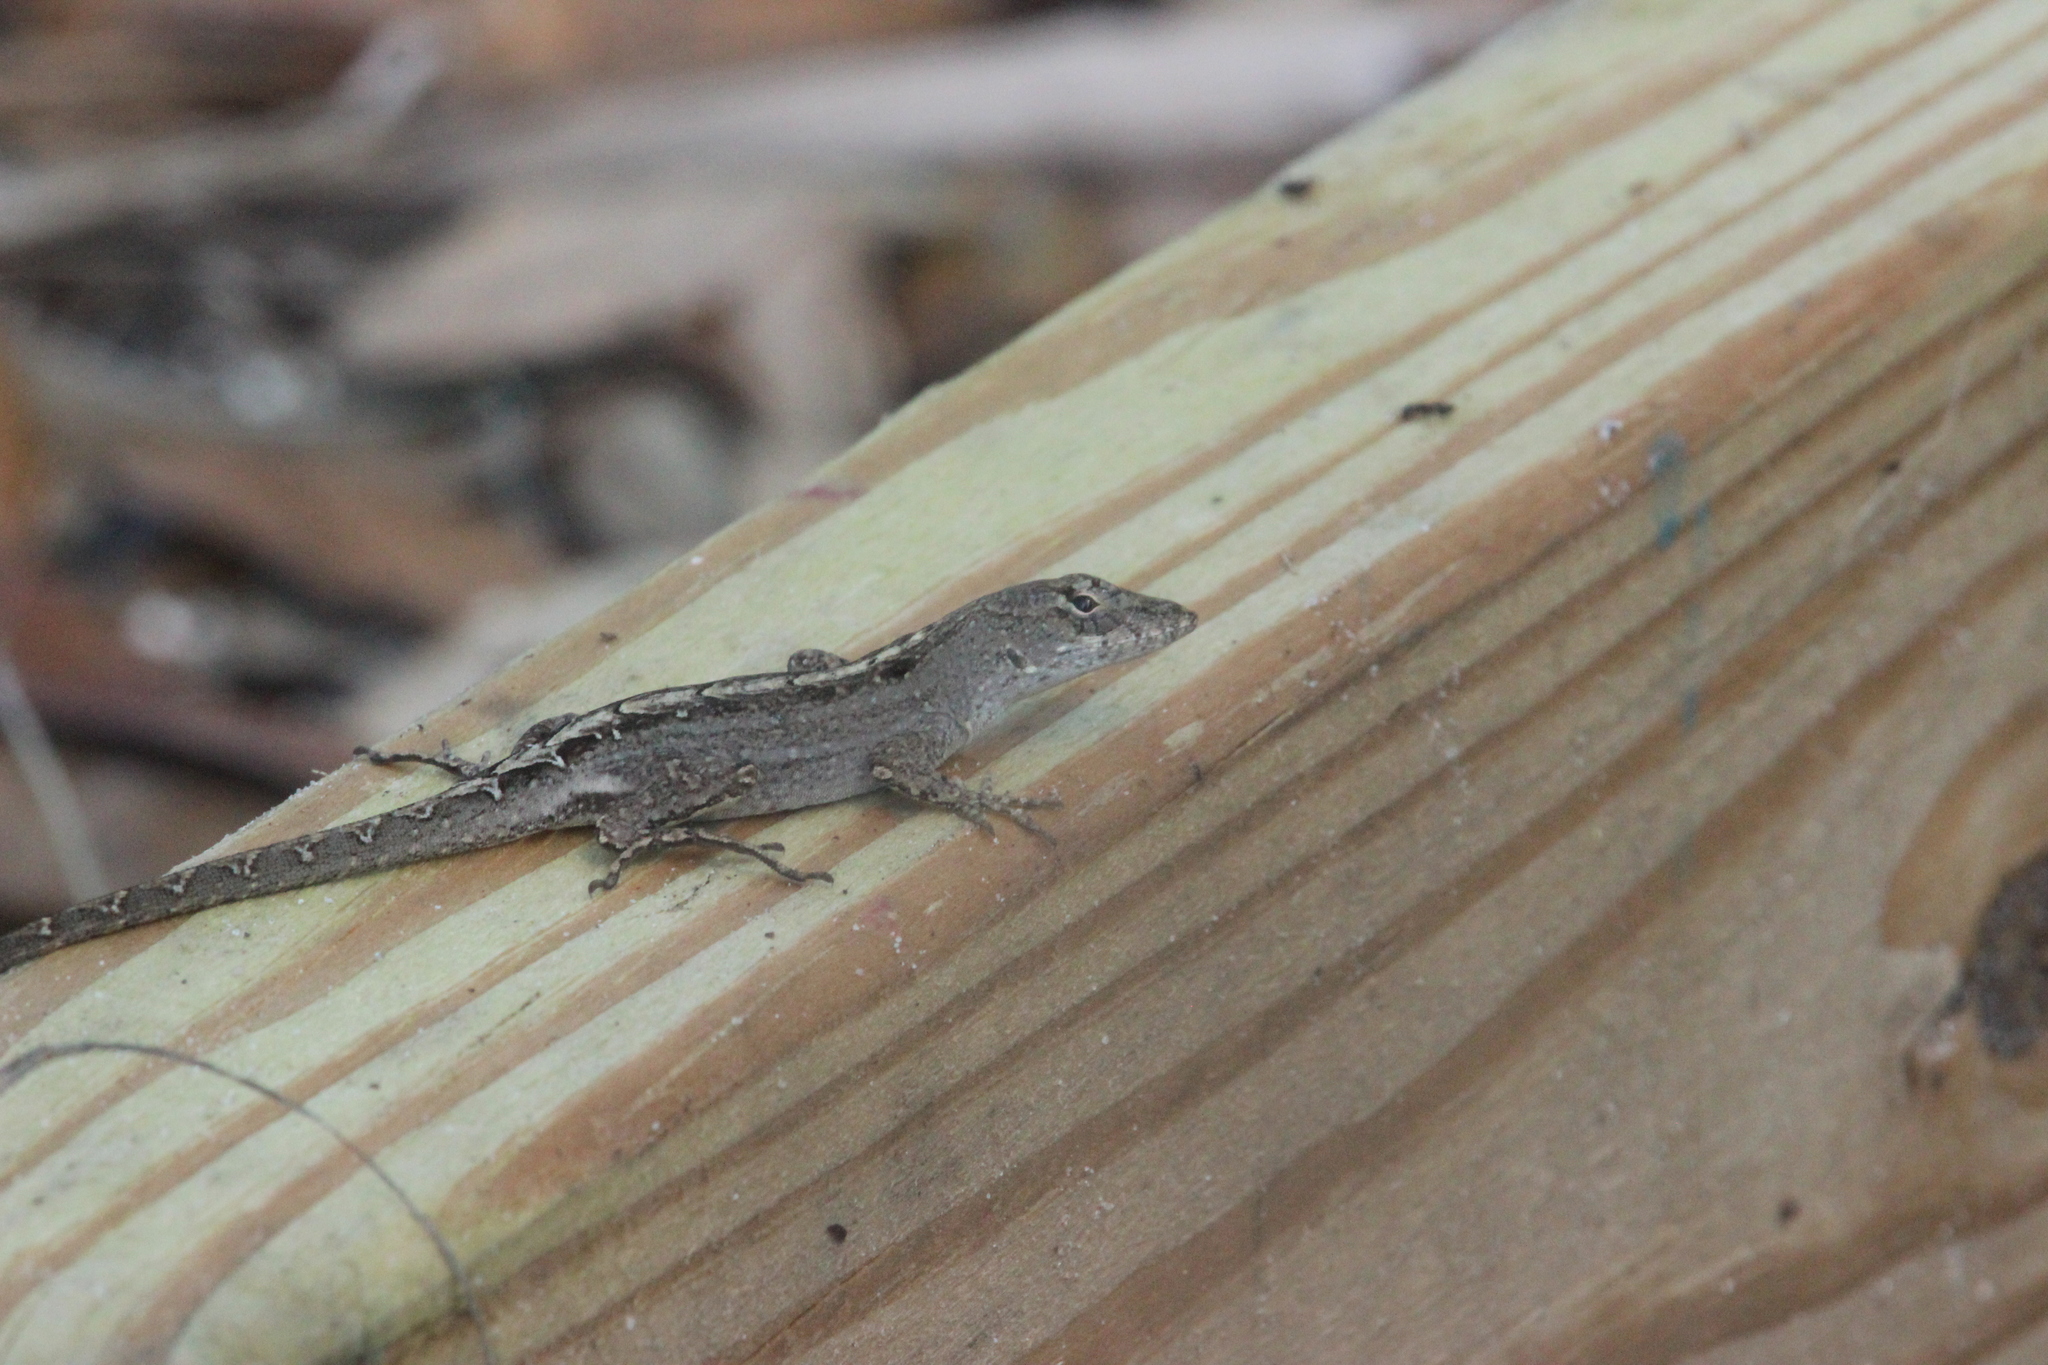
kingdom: Animalia
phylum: Chordata
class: Squamata
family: Dactyloidae
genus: Anolis
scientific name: Anolis sagrei
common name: Brown anole
